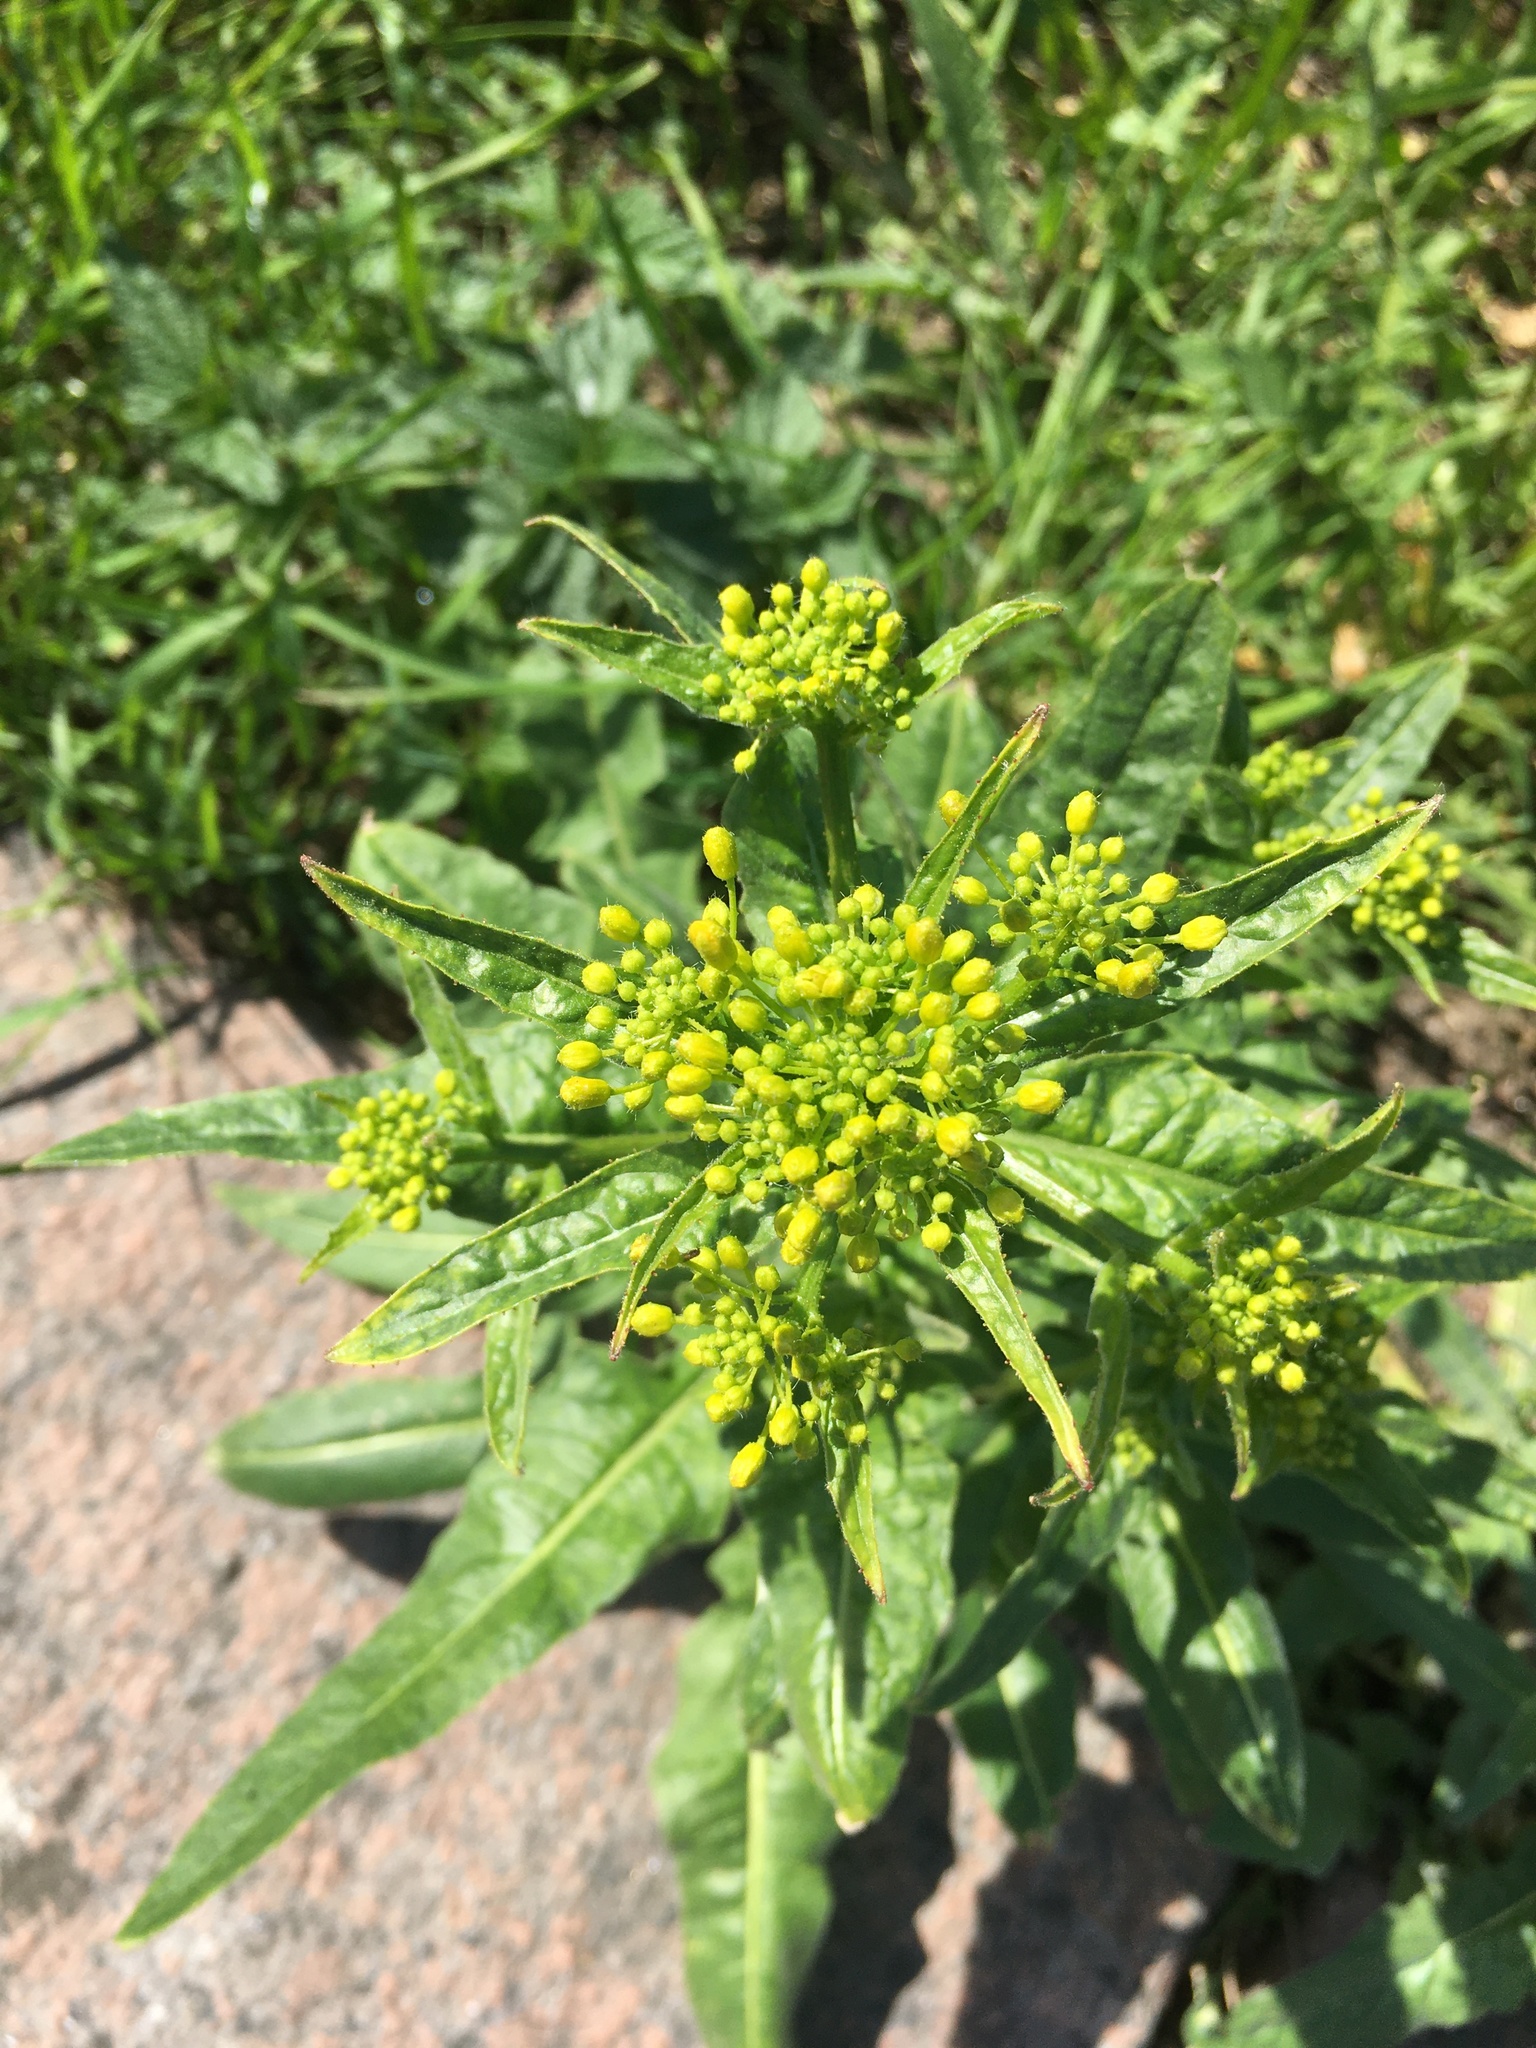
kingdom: Plantae
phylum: Tracheophyta
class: Magnoliopsida
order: Brassicales
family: Brassicaceae
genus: Bunias
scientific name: Bunias orientalis
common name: Warty-cabbage
